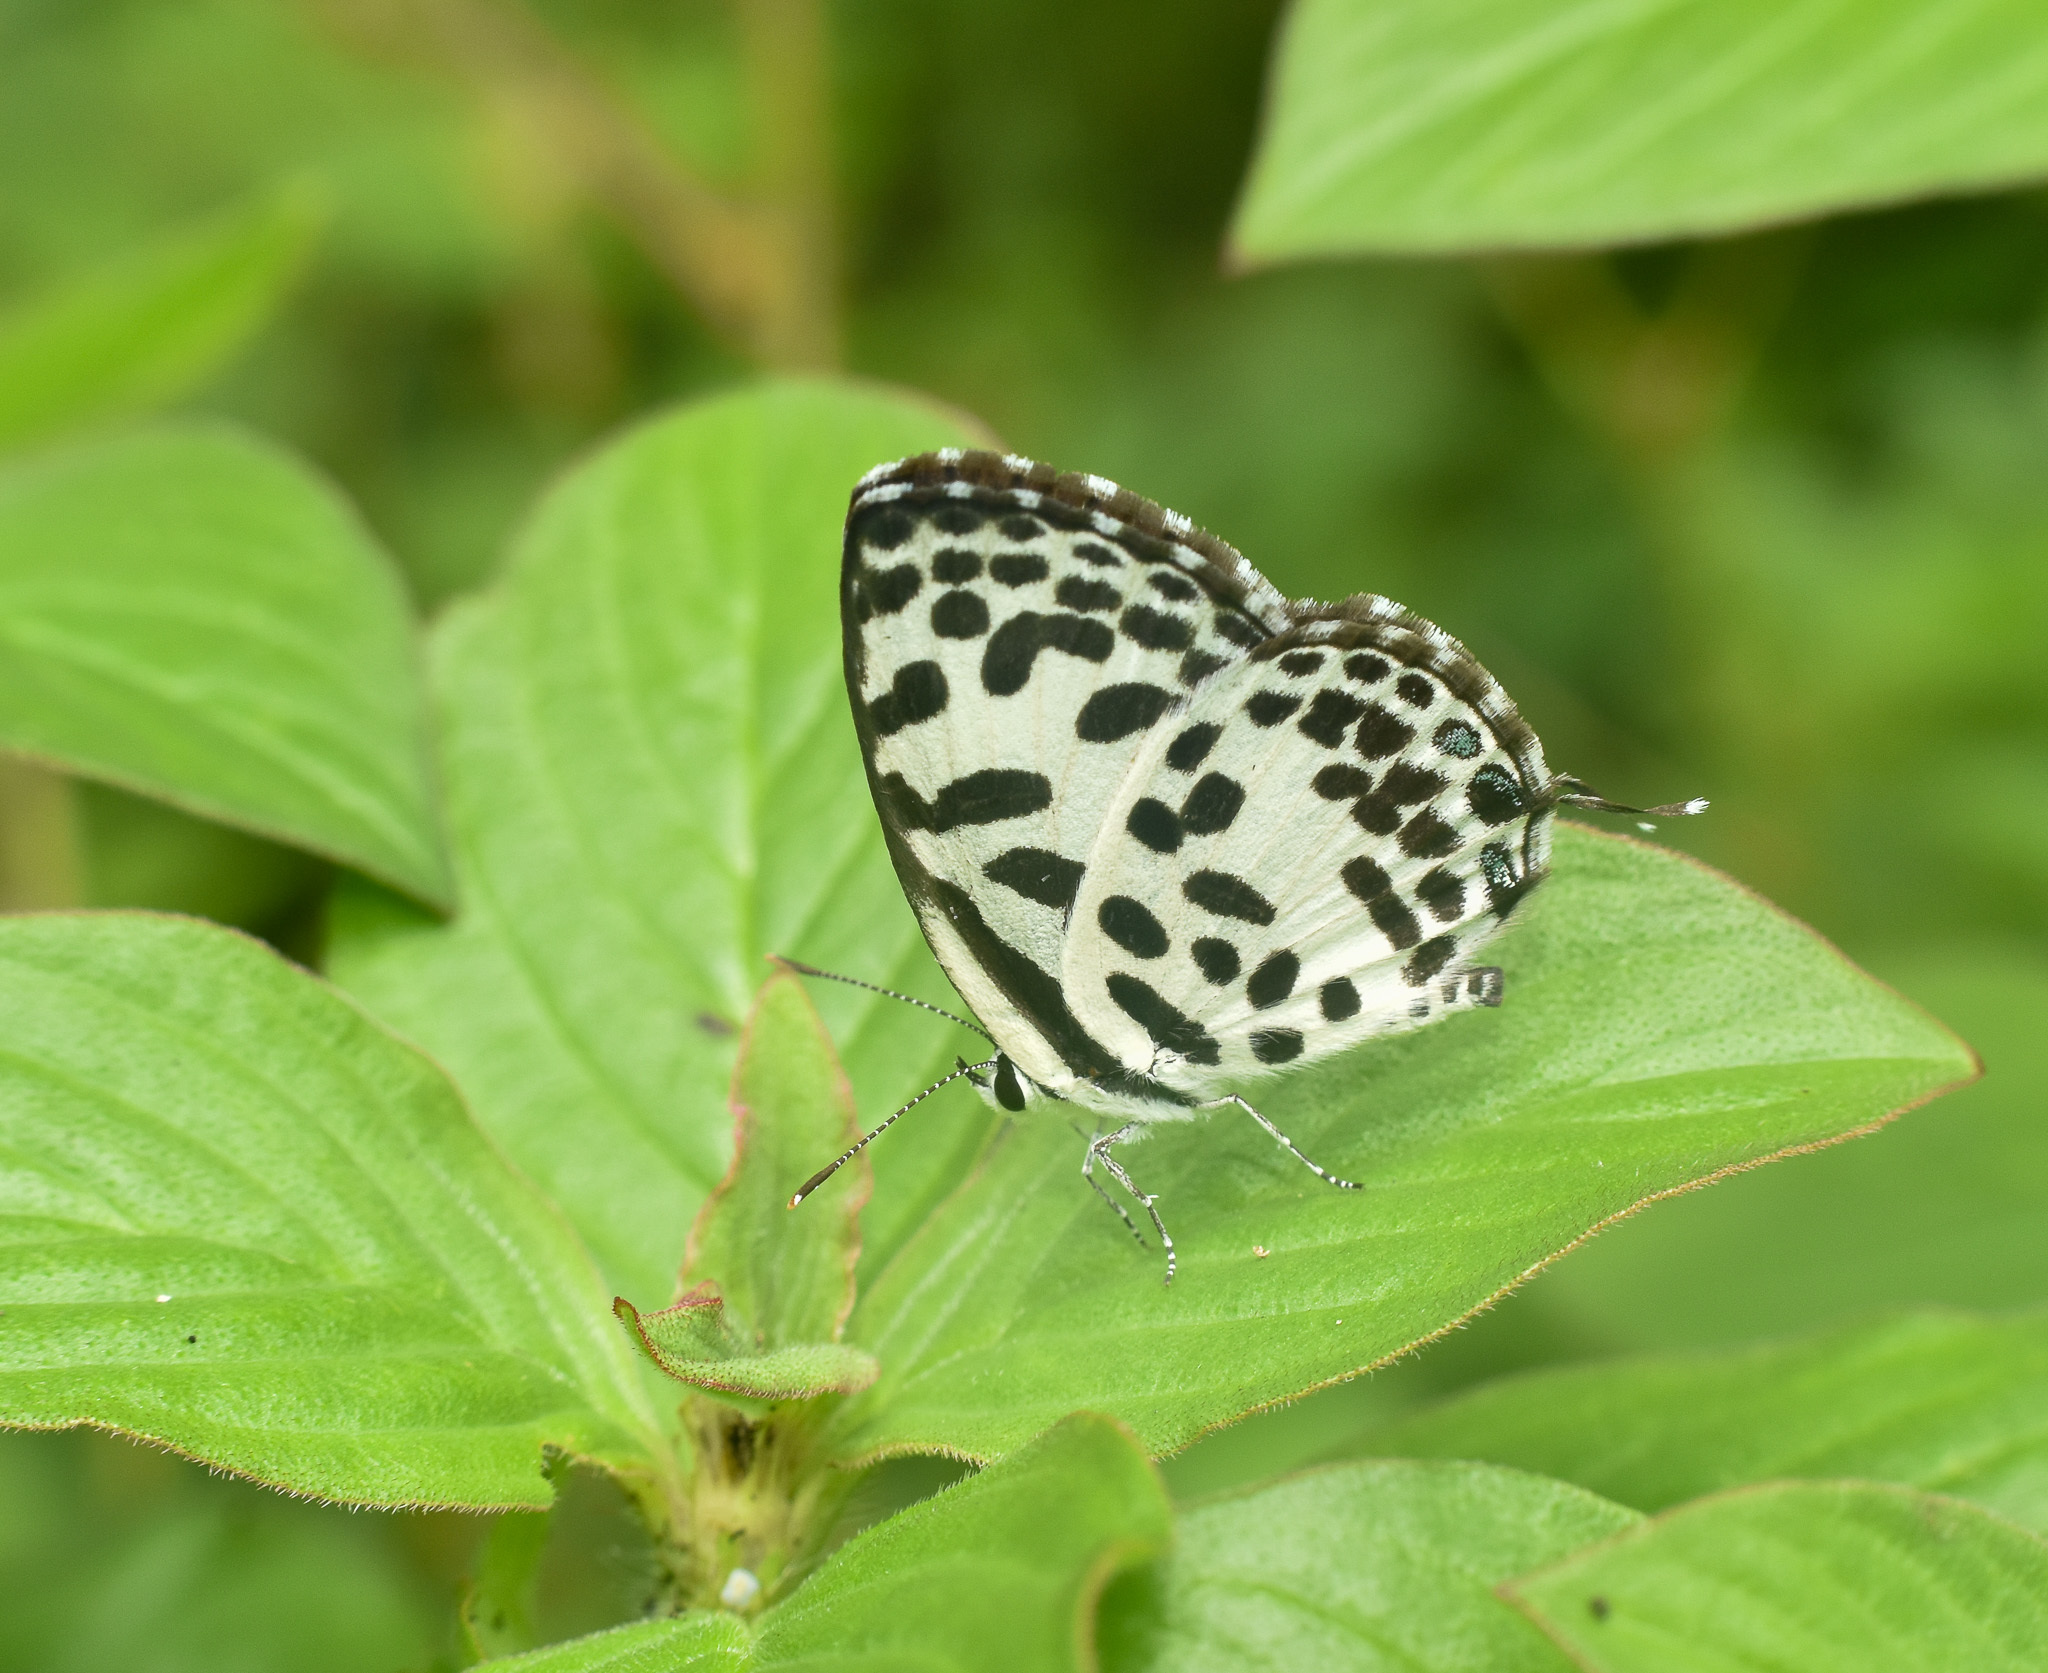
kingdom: Animalia
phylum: Arthropoda
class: Insecta
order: Lepidoptera
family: Lycaenidae
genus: Castalius
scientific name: Castalius rosimon
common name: Common pierrot
